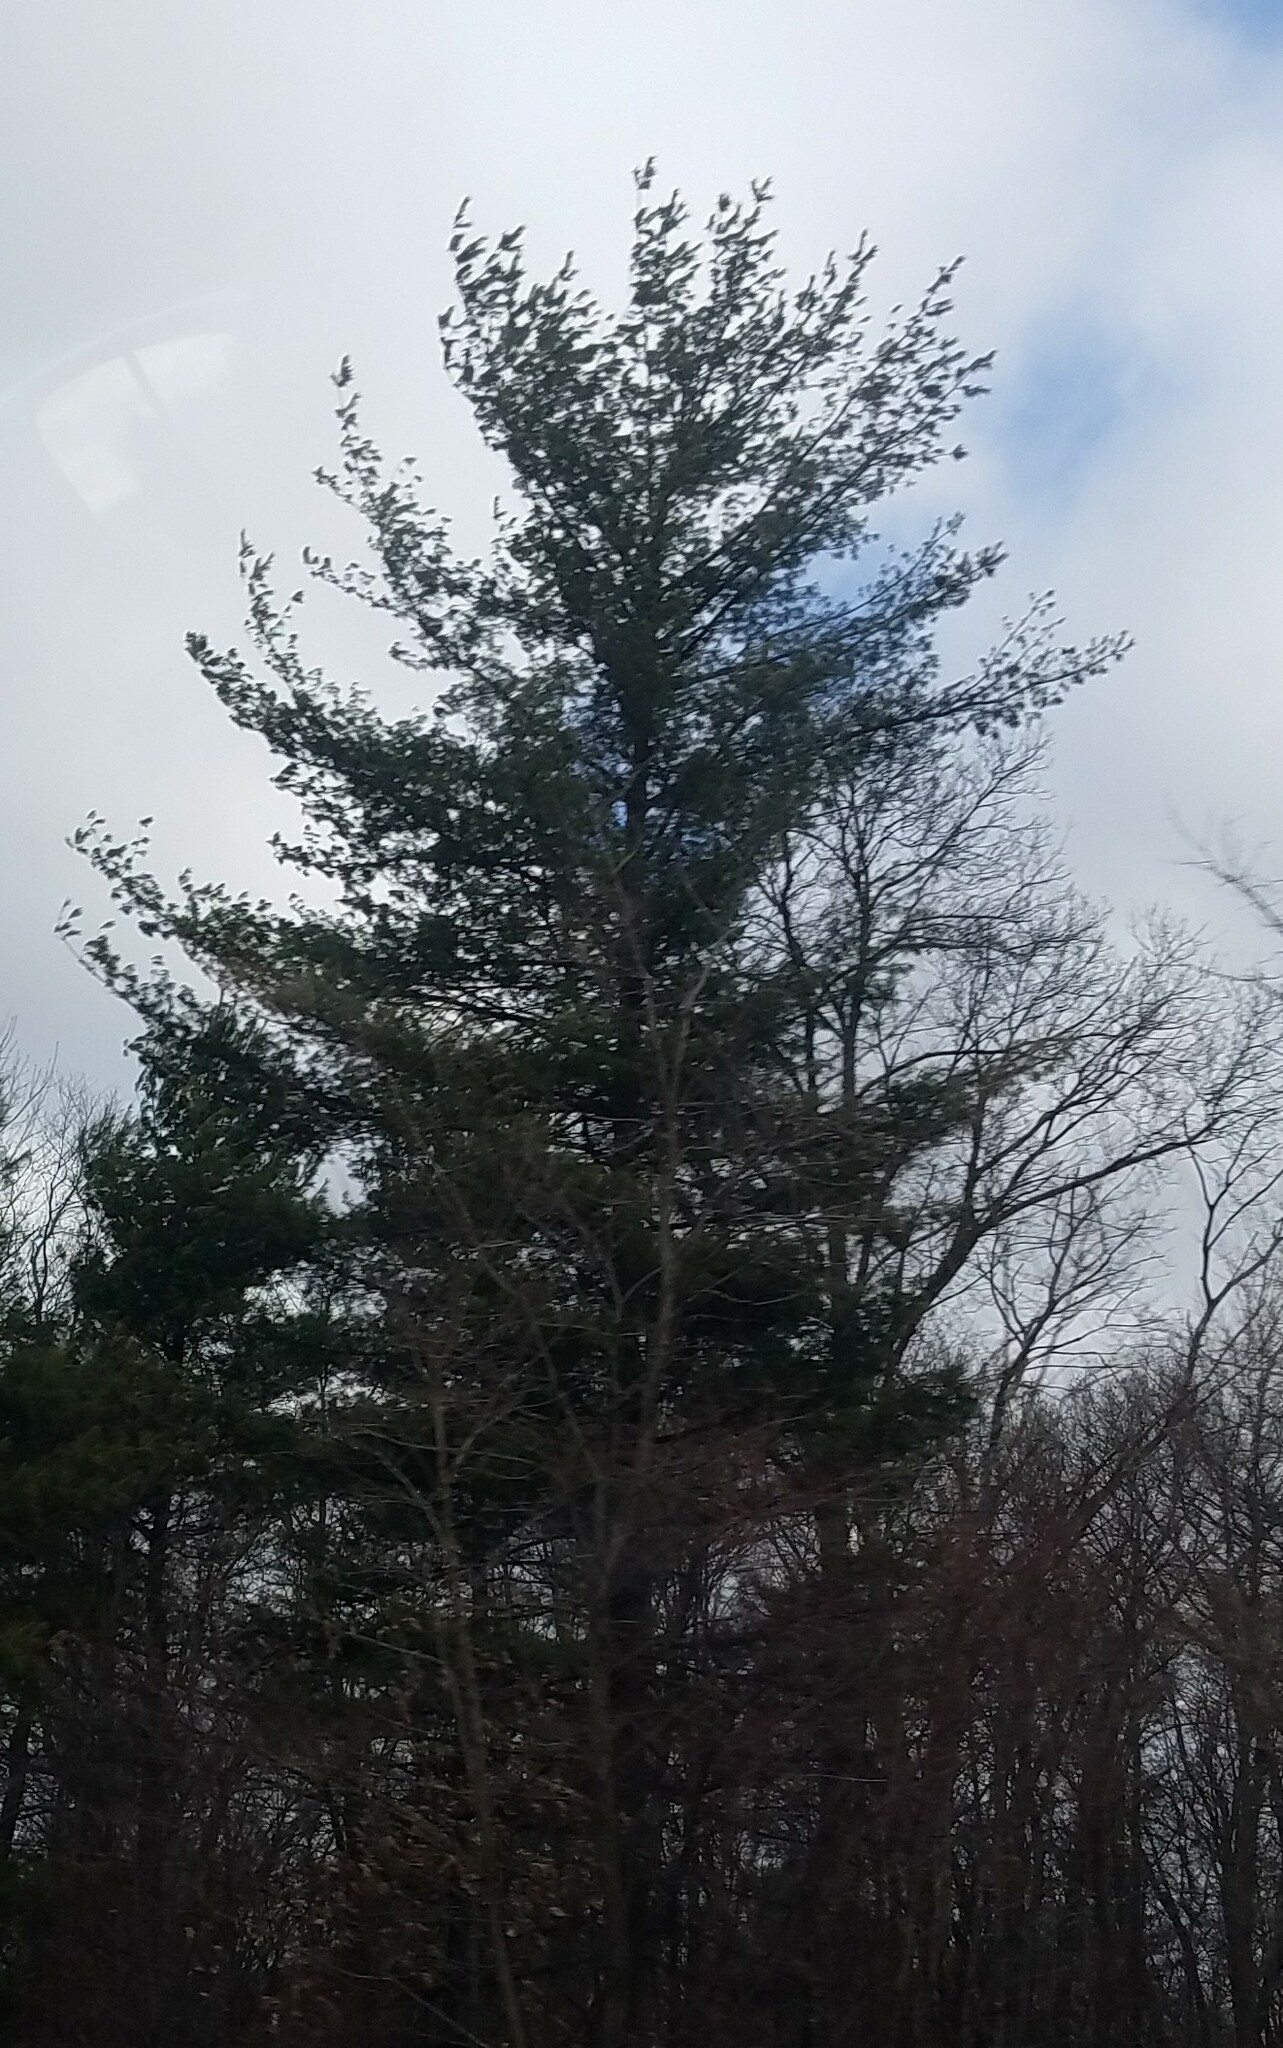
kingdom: Plantae
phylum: Tracheophyta
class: Pinopsida
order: Pinales
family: Pinaceae
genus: Pinus
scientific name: Pinus strobus
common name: Weymouth pine
